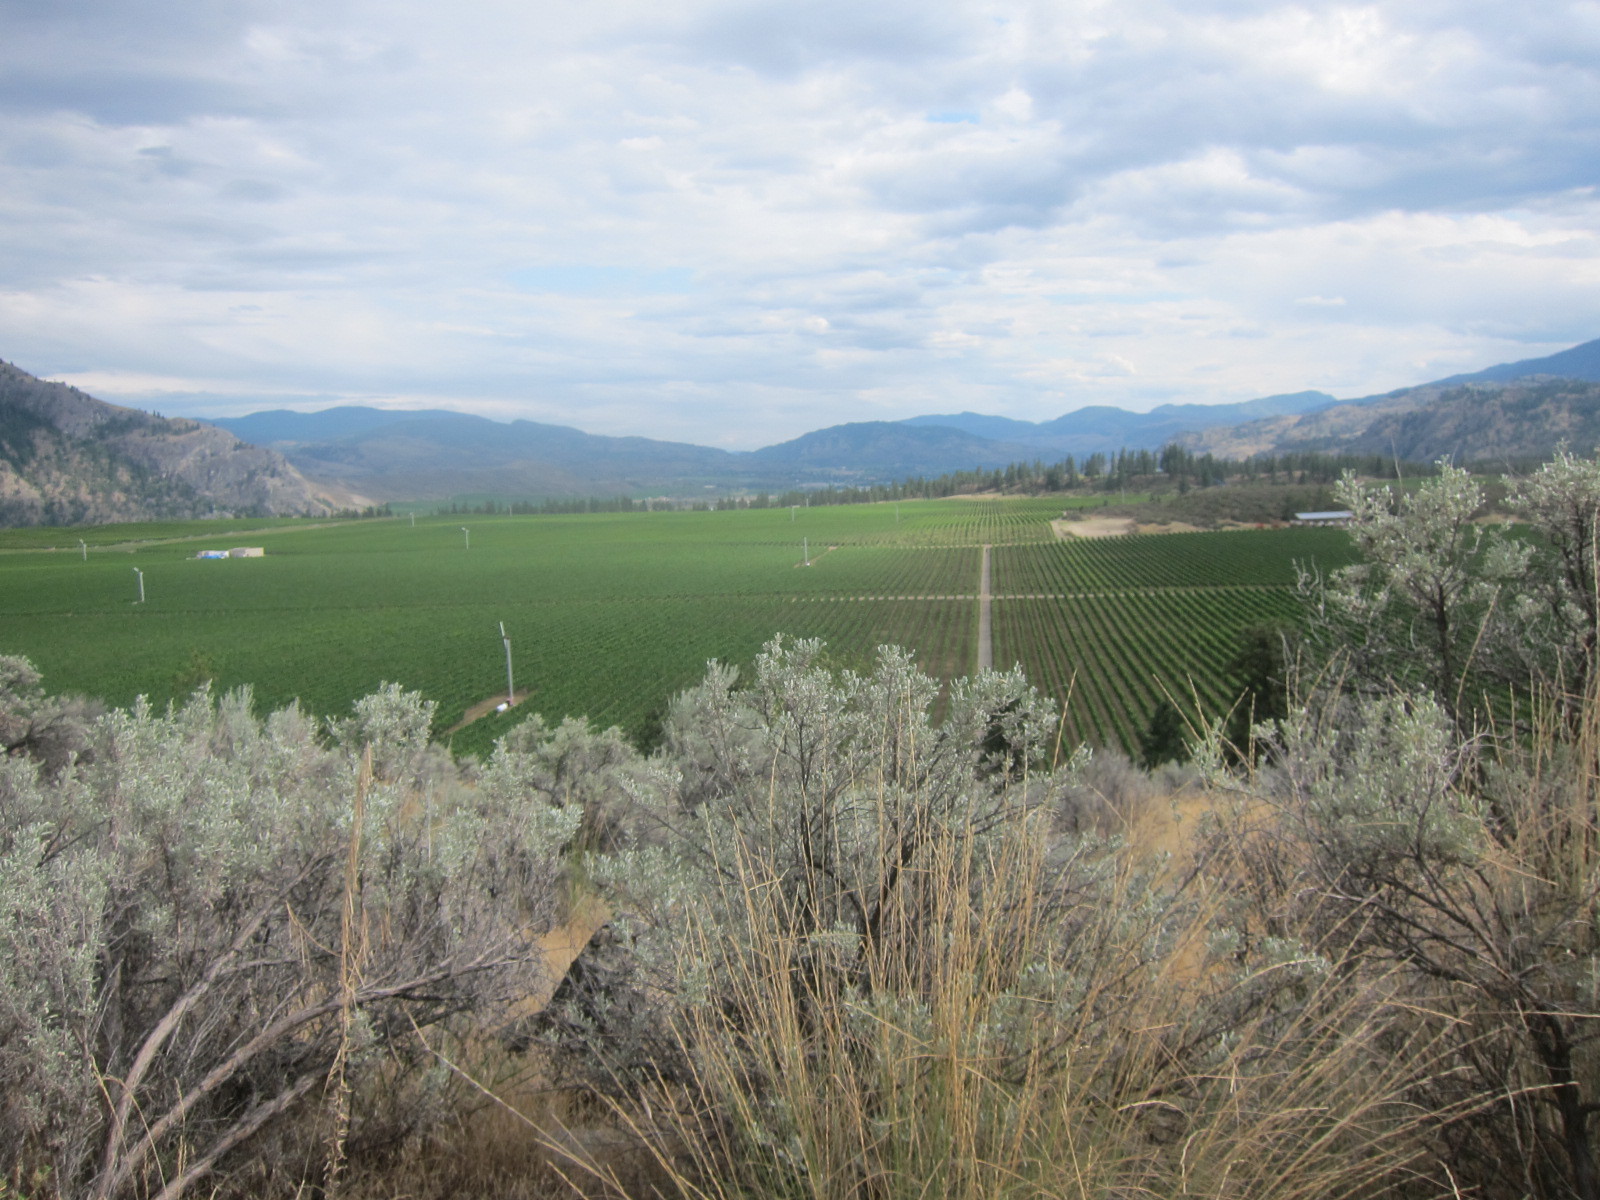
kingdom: Plantae
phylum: Tracheophyta
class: Magnoliopsida
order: Asterales
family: Asteraceae
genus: Artemisia
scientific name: Artemisia tridentata
